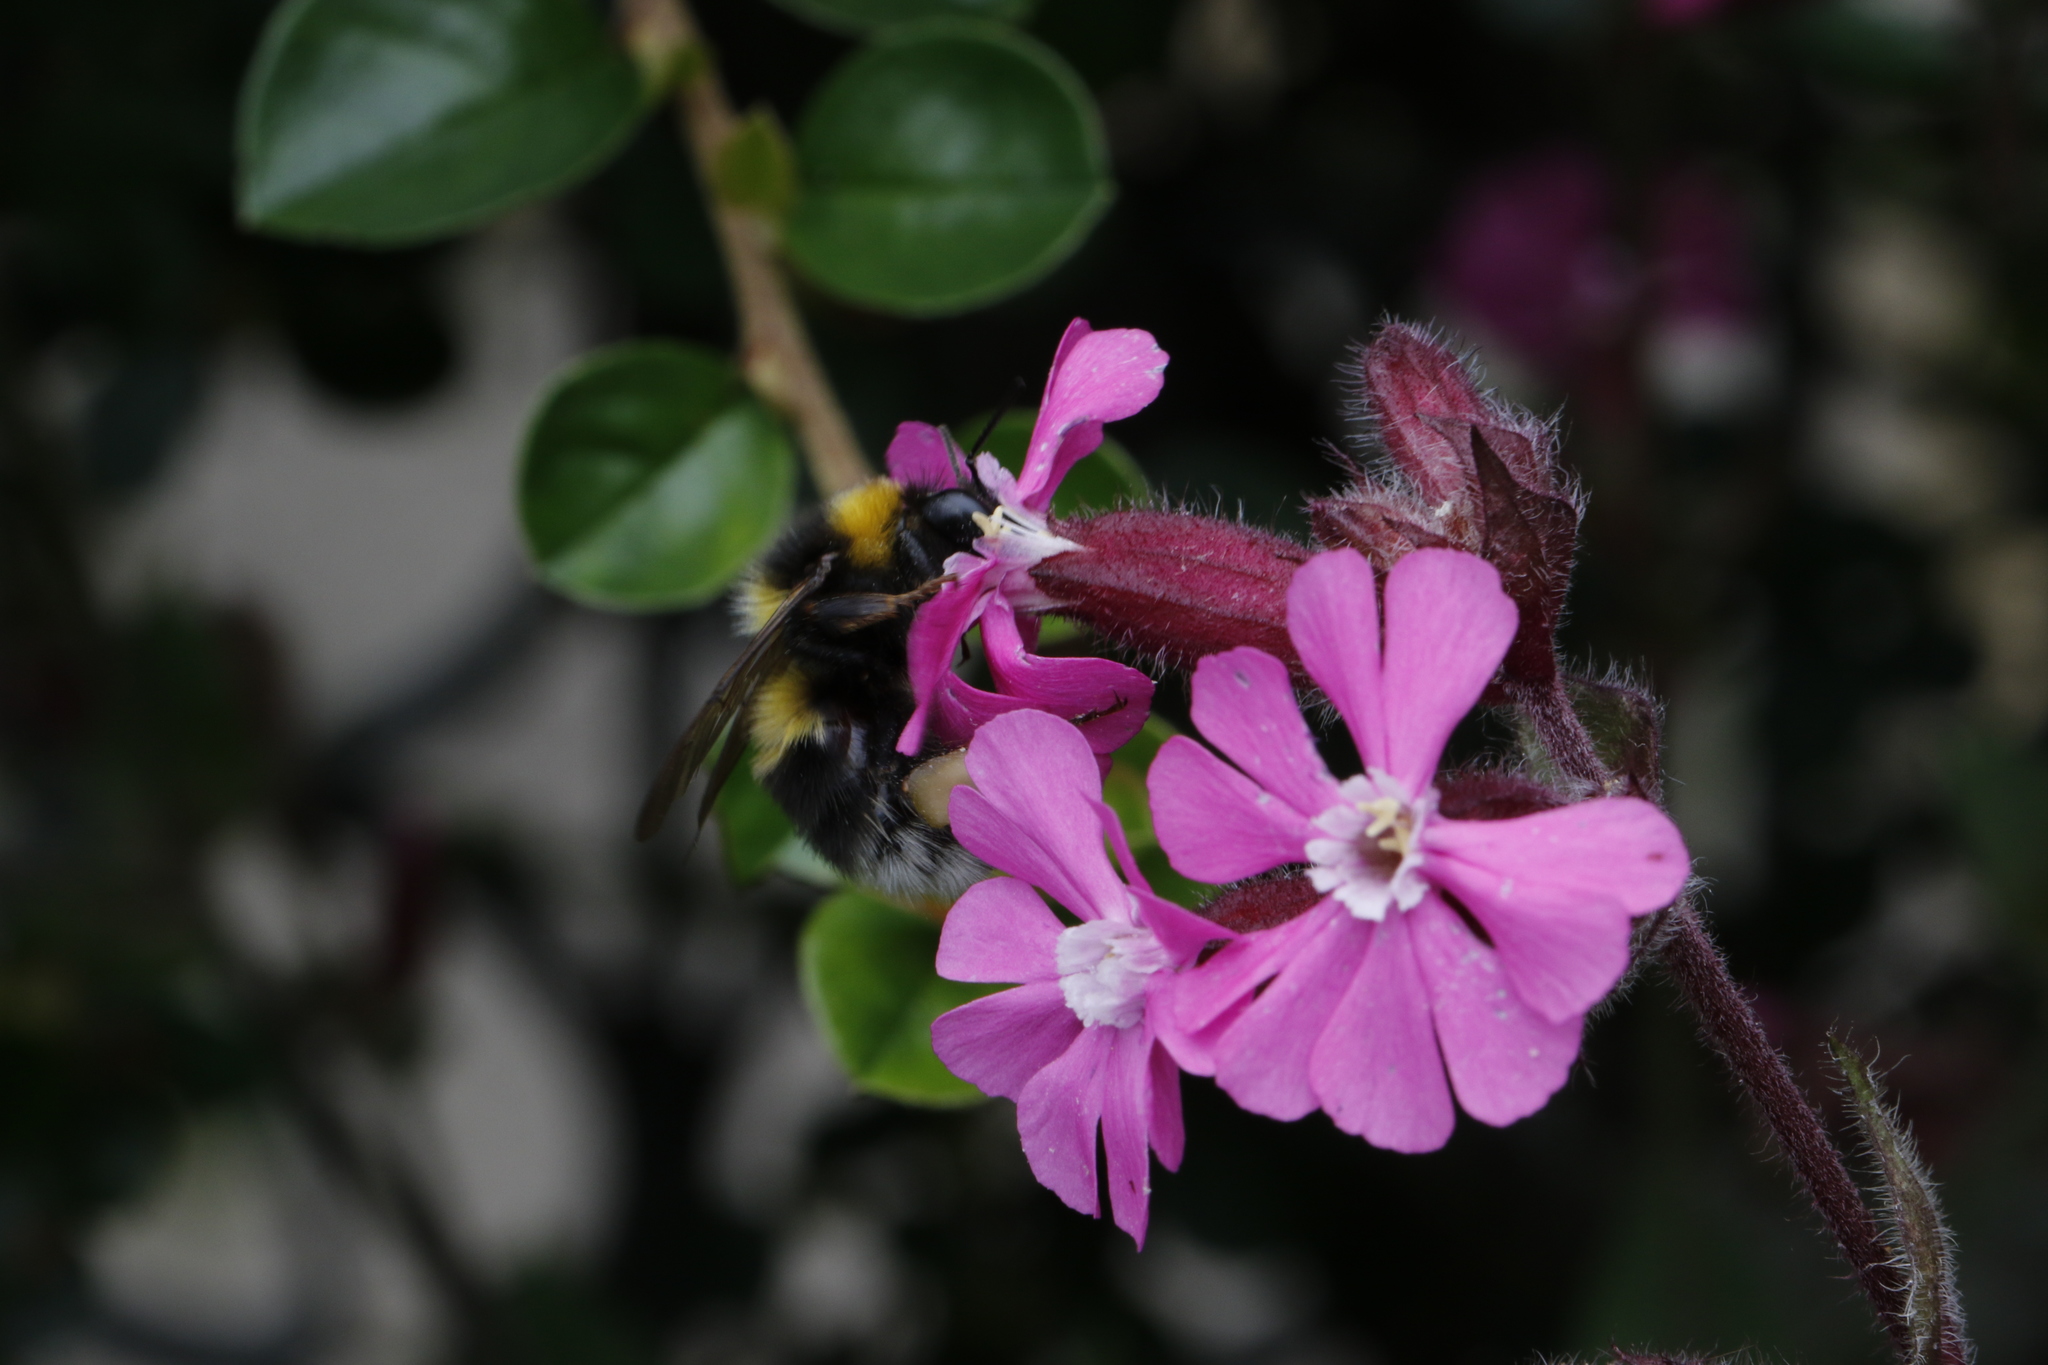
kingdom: Plantae
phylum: Tracheophyta
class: Magnoliopsida
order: Caryophyllales
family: Caryophyllaceae
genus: Silene
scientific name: Silene dioica
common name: Red campion
